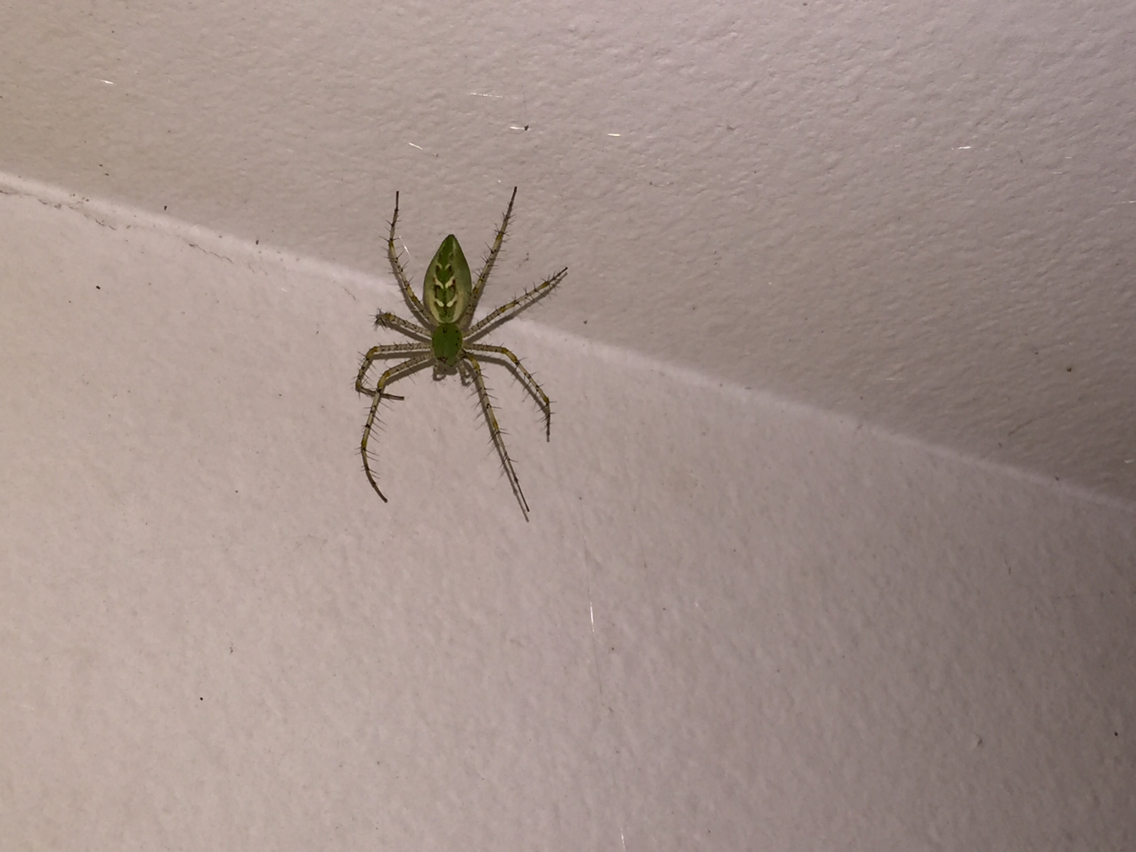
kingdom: Animalia
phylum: Arthropoda
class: Arachnida
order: Araneae
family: Oxyopidae
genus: Peucetia
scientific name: Peucetia viridans
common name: Lynx spiders
